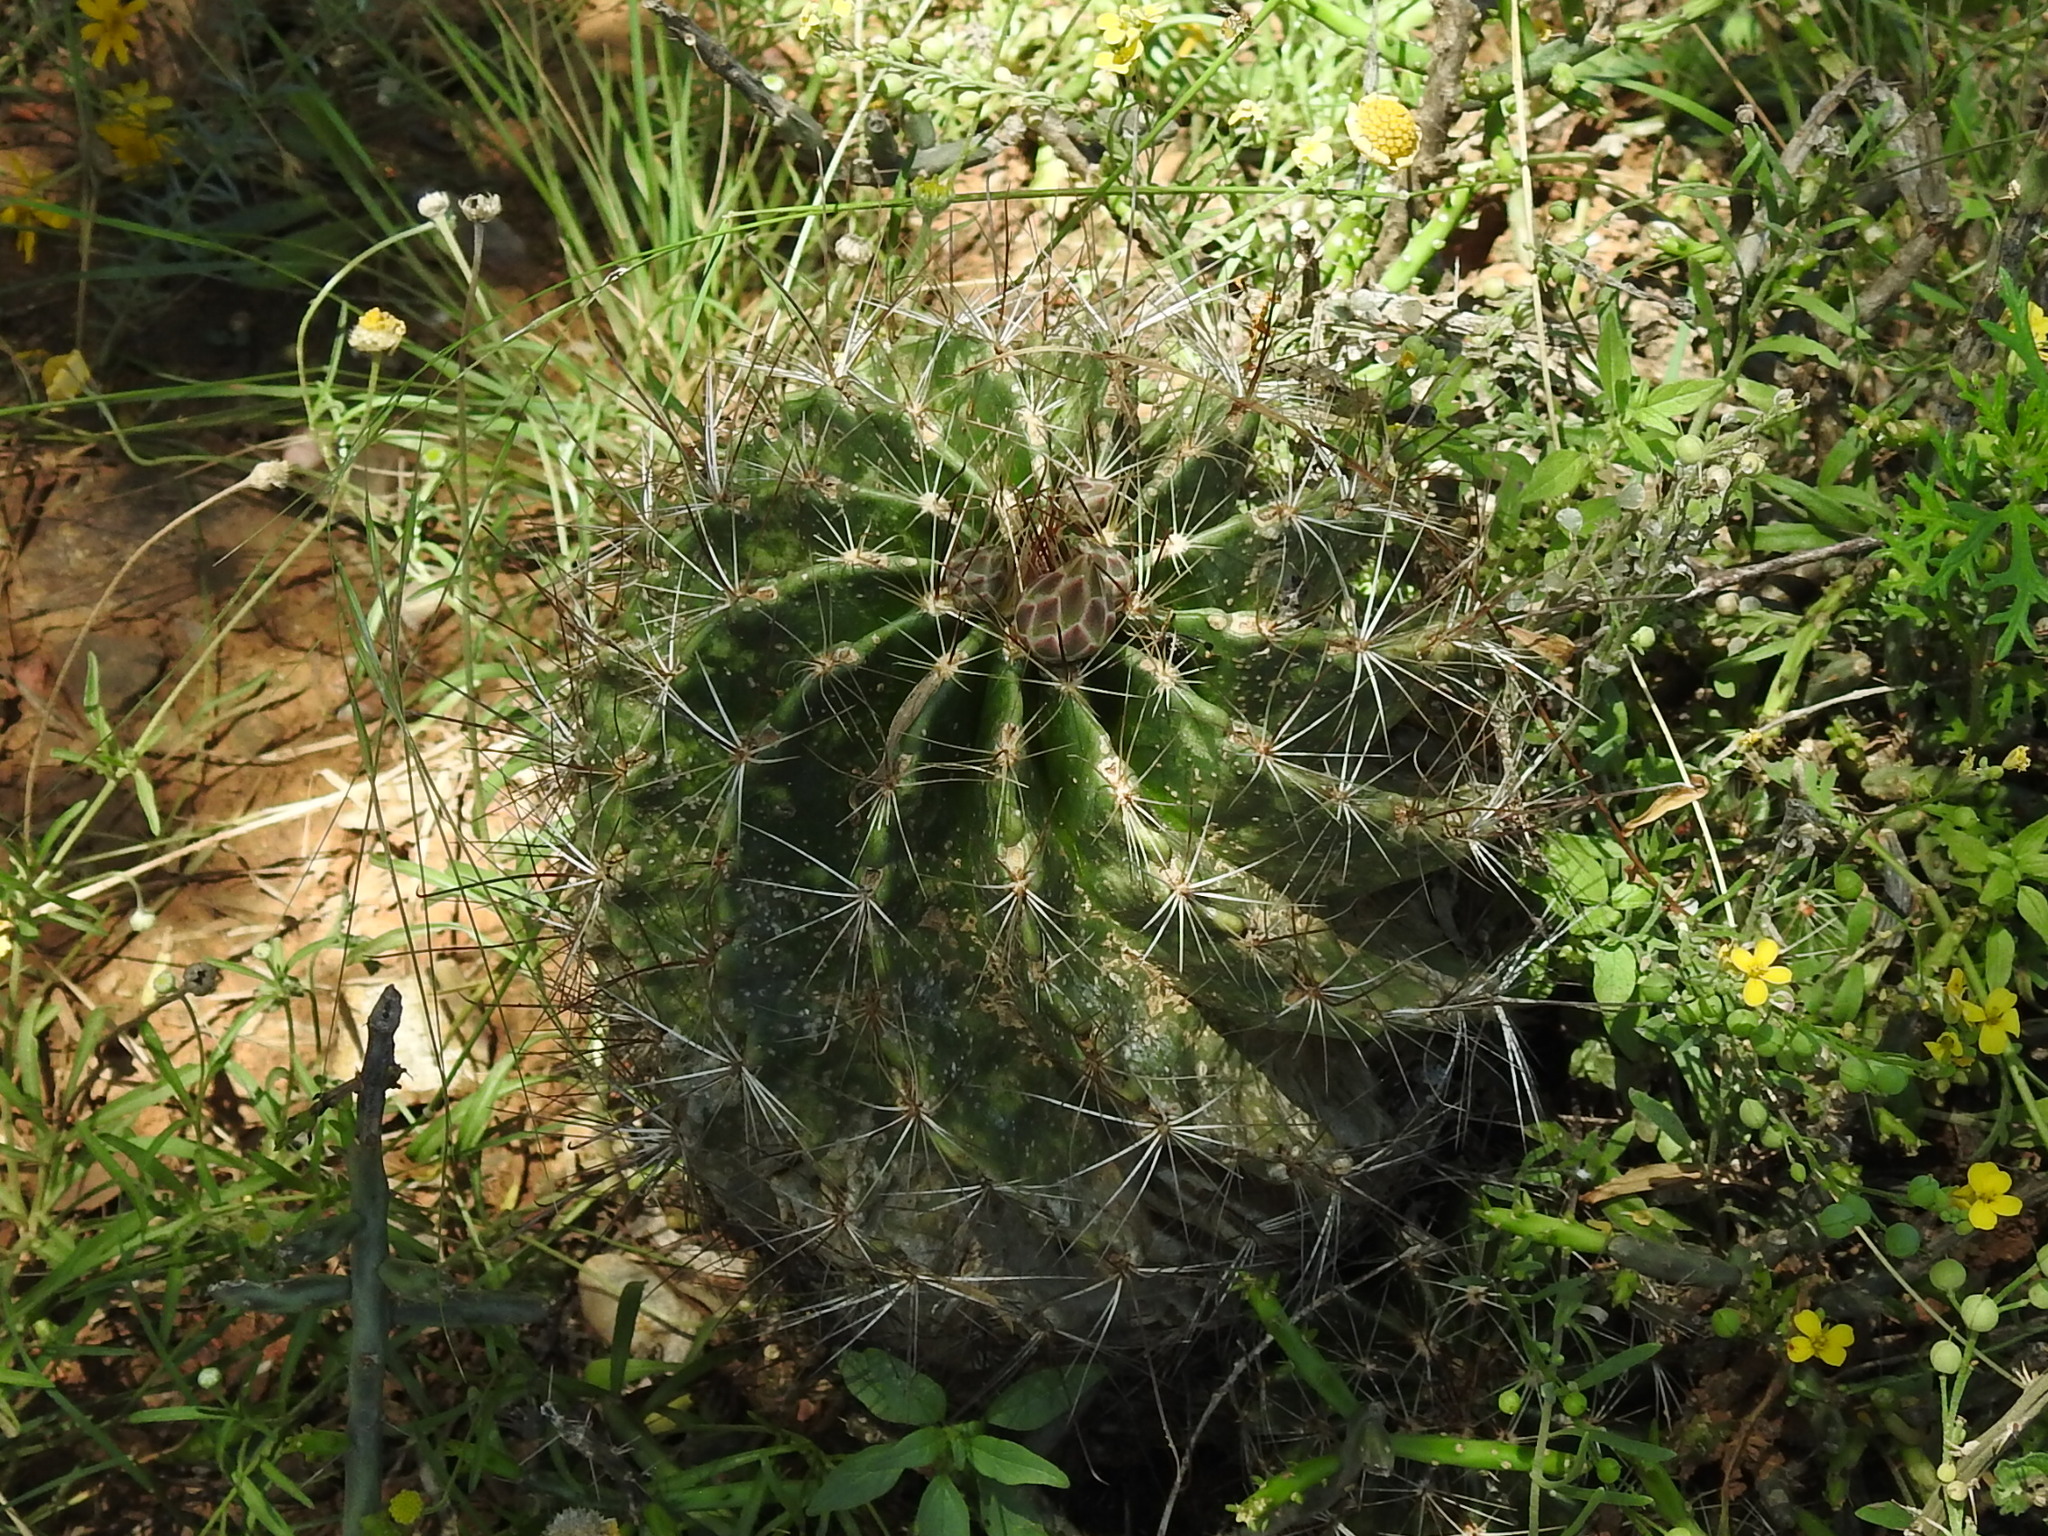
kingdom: Plantae
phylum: Tracheophyta
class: Magnoliopsida
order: Caryophyllales
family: Cactaceae
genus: Thelocactus
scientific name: Thelocactus setispinus
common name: Miniature barrel cactus
